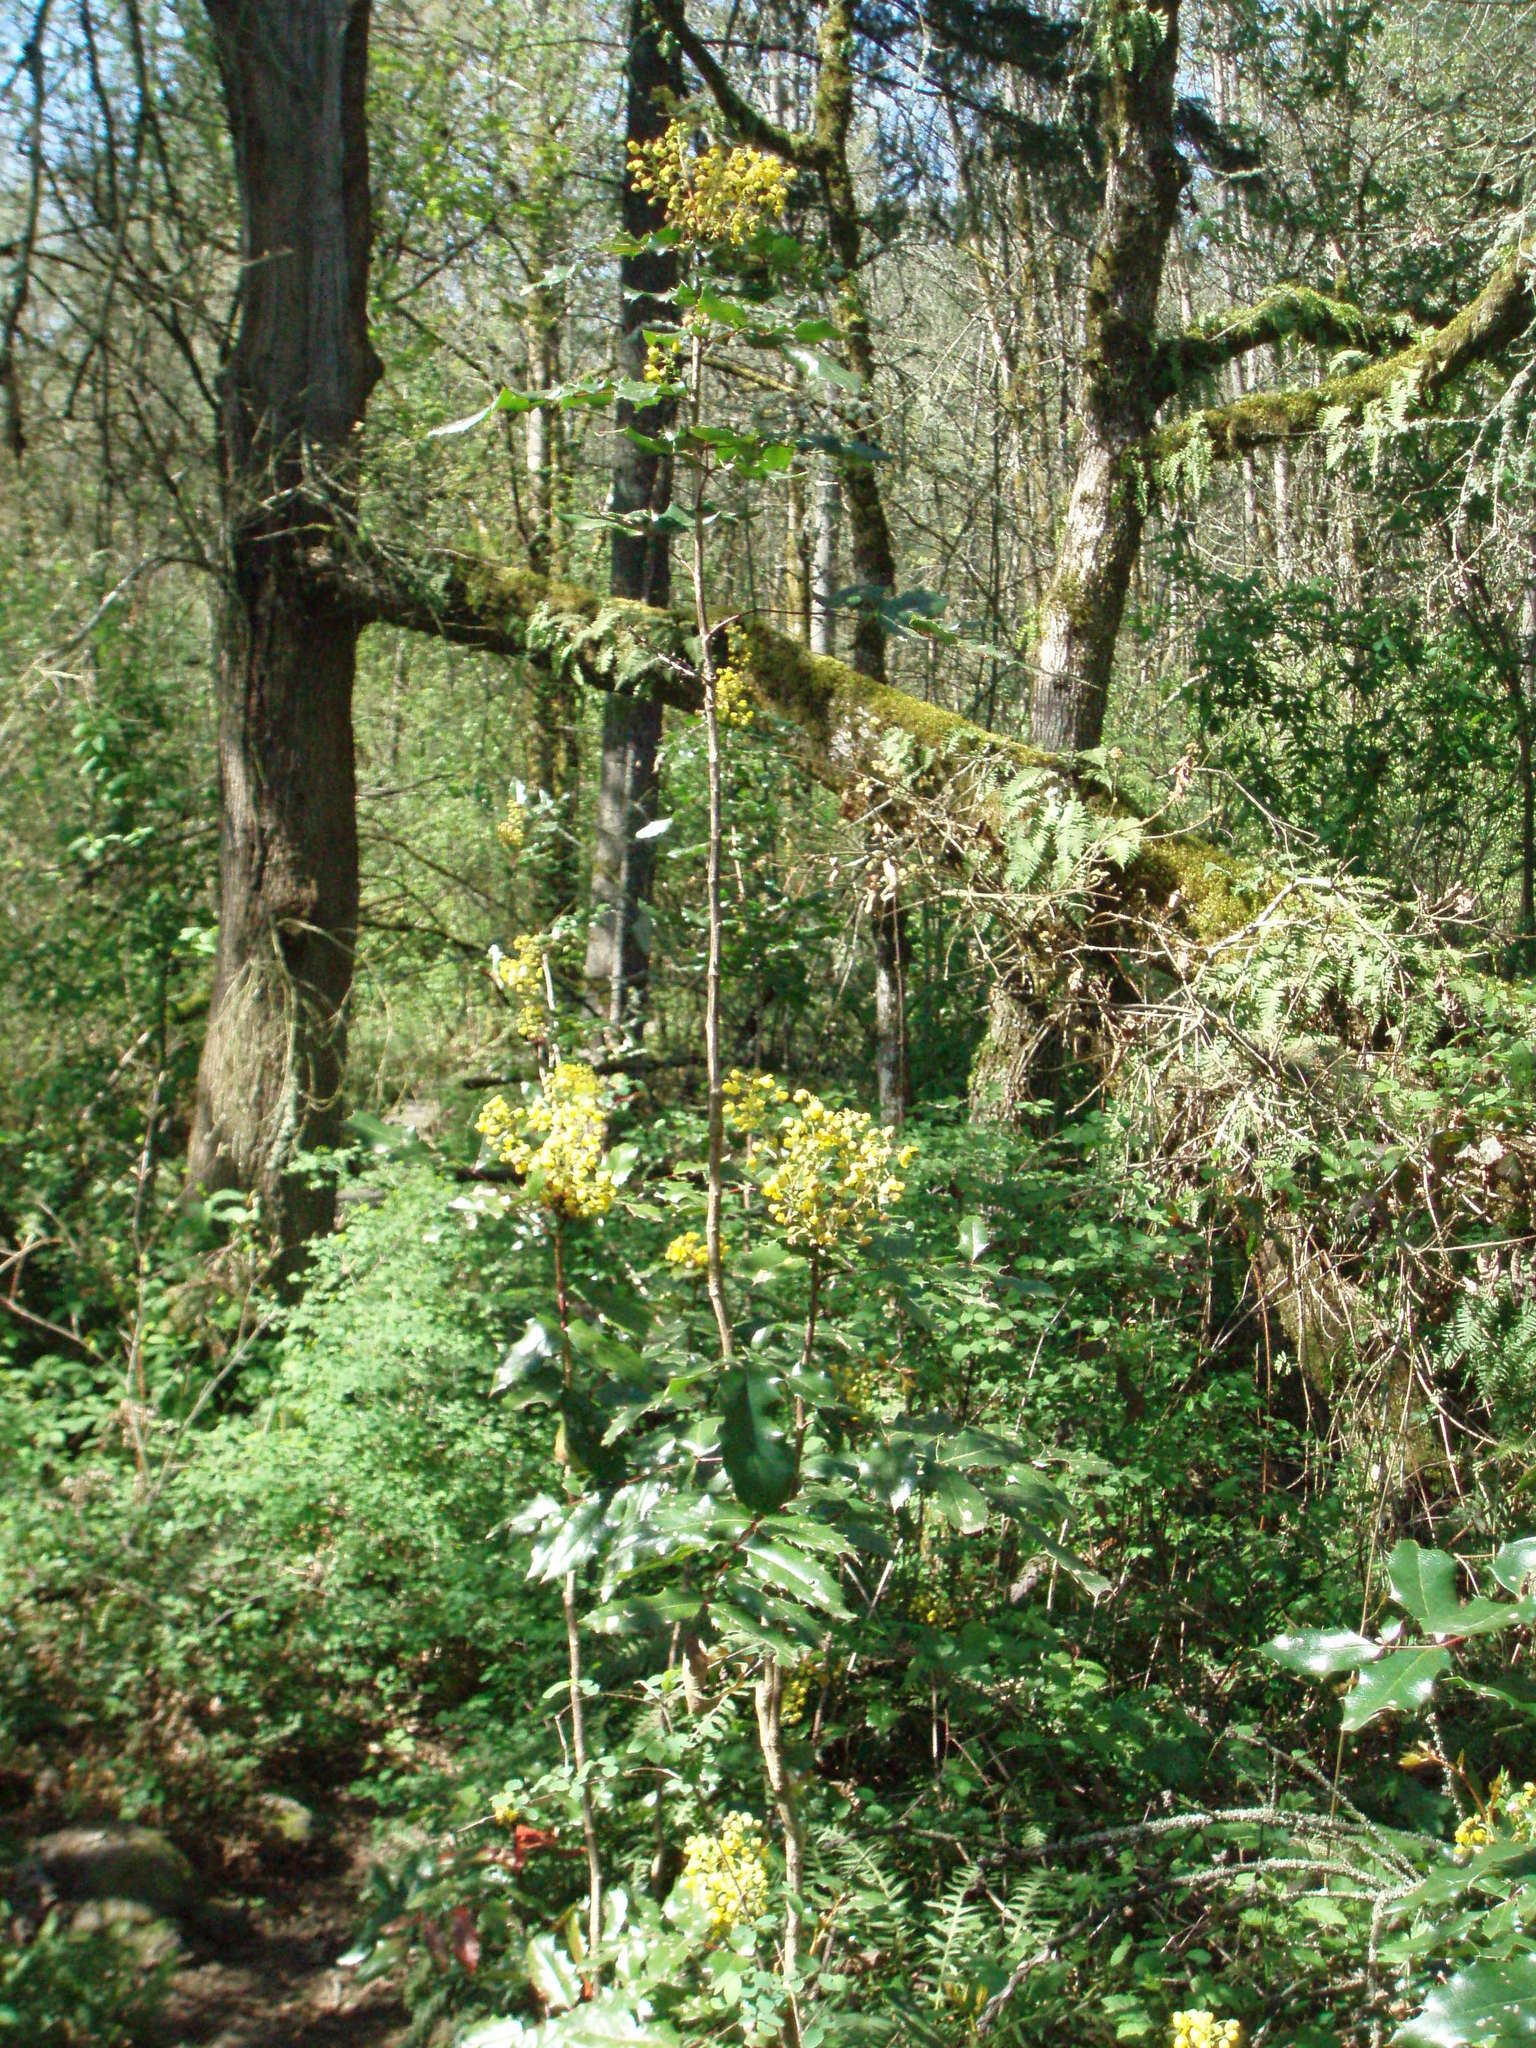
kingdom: Plantae
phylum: Tracheophyta
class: Magnoliopsida
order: Ranunculales
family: Berberidaceae
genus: Mahonia
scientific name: Mahonia aquifolium
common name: Oregon-grape
